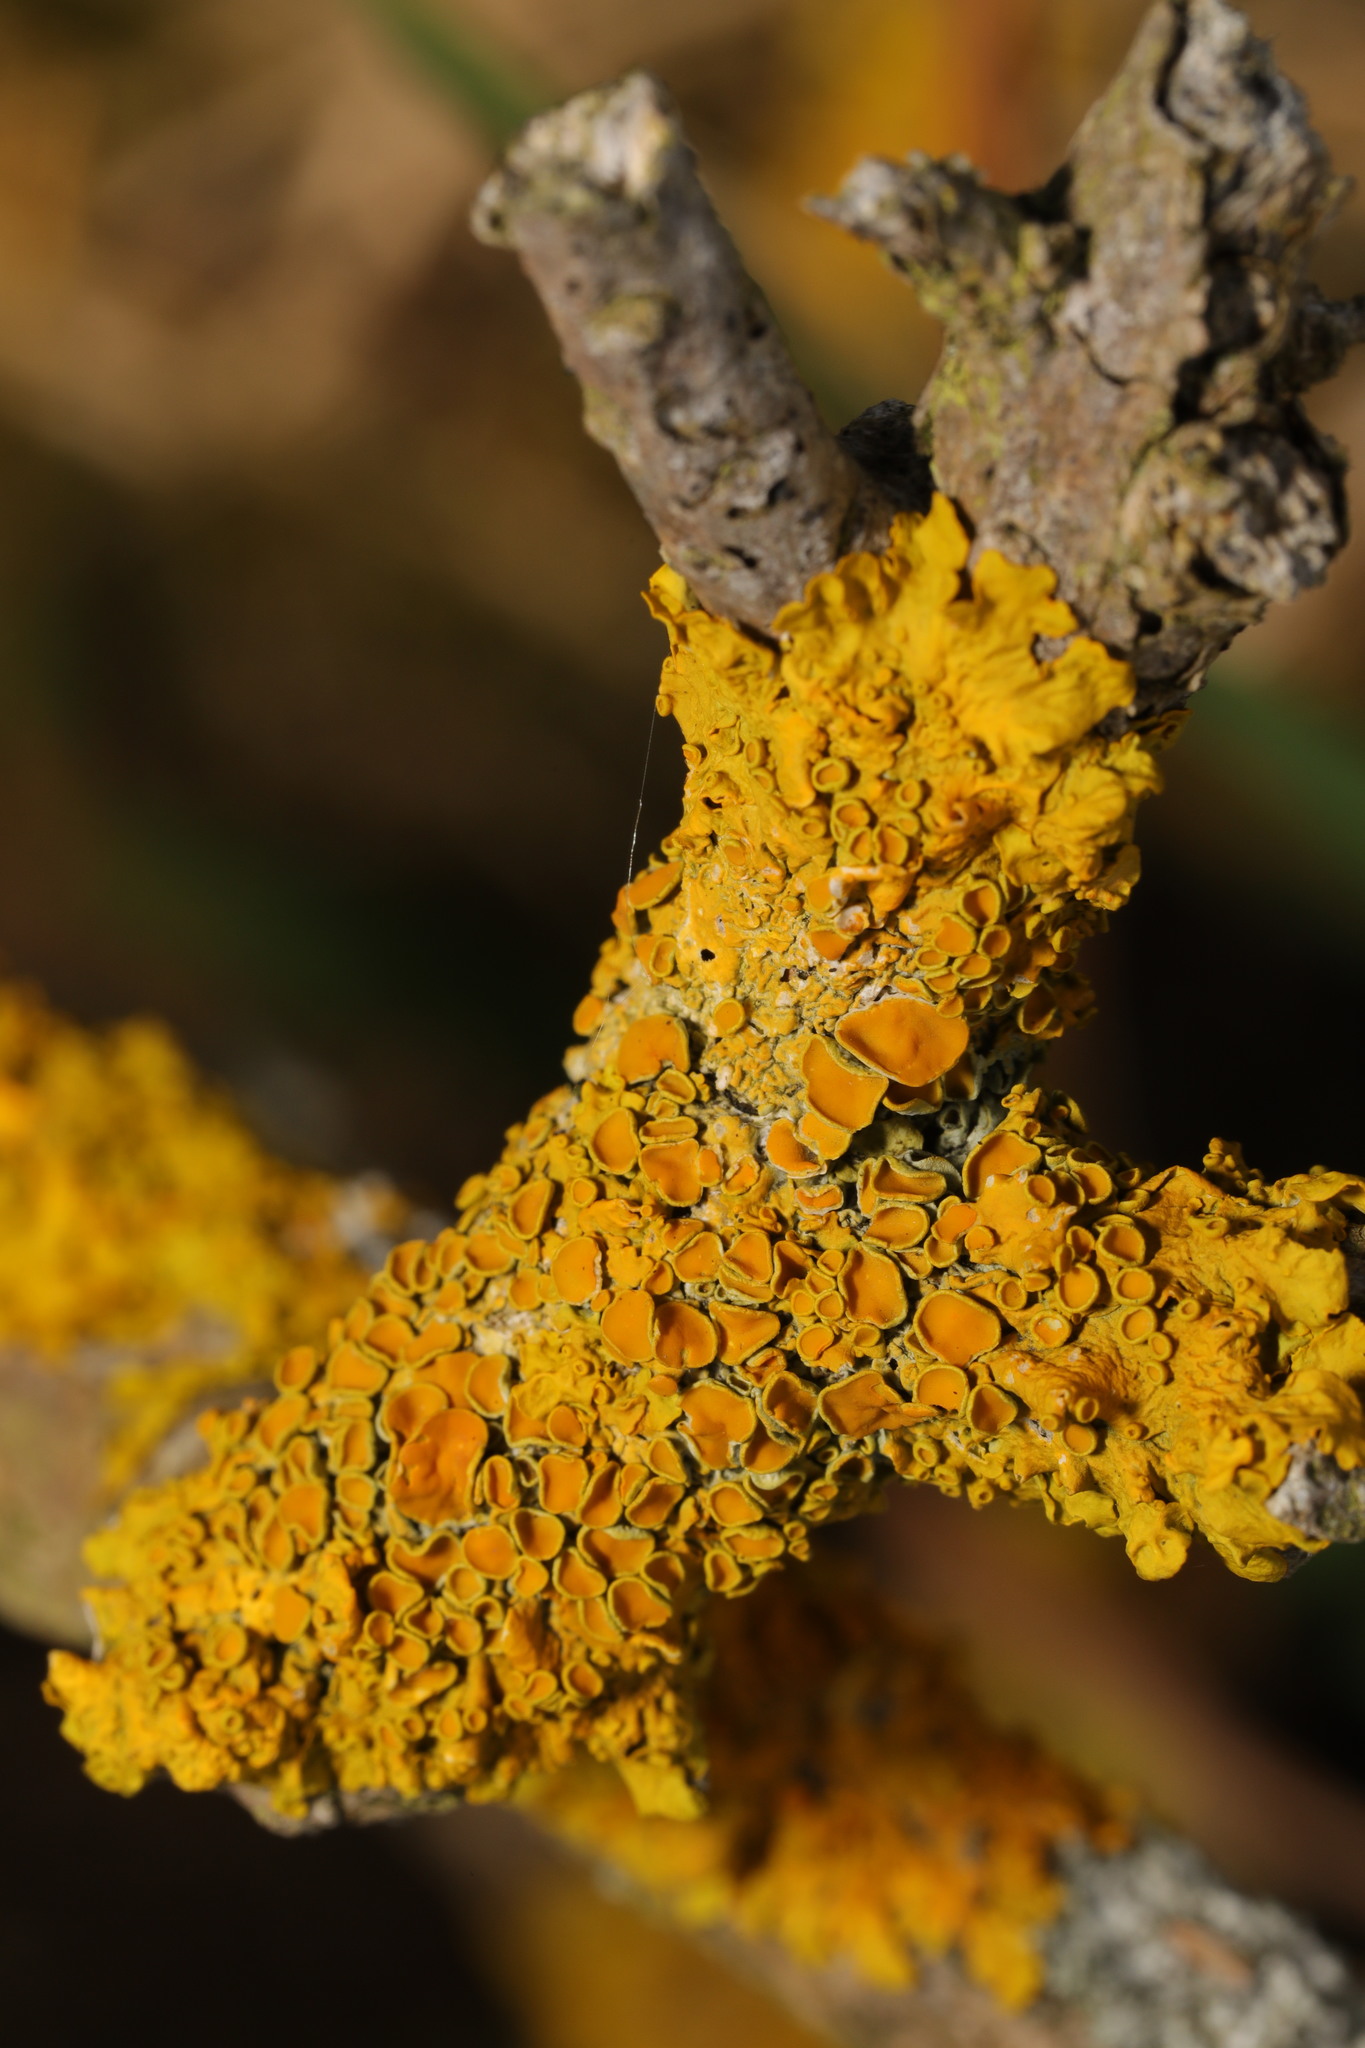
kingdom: Fungi
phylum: Ascomycota
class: Lecanoromycetes
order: Teloschistales
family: Teloschistaceae
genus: Xanthoria
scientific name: Xanthoria parietina
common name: Common orange lichen
